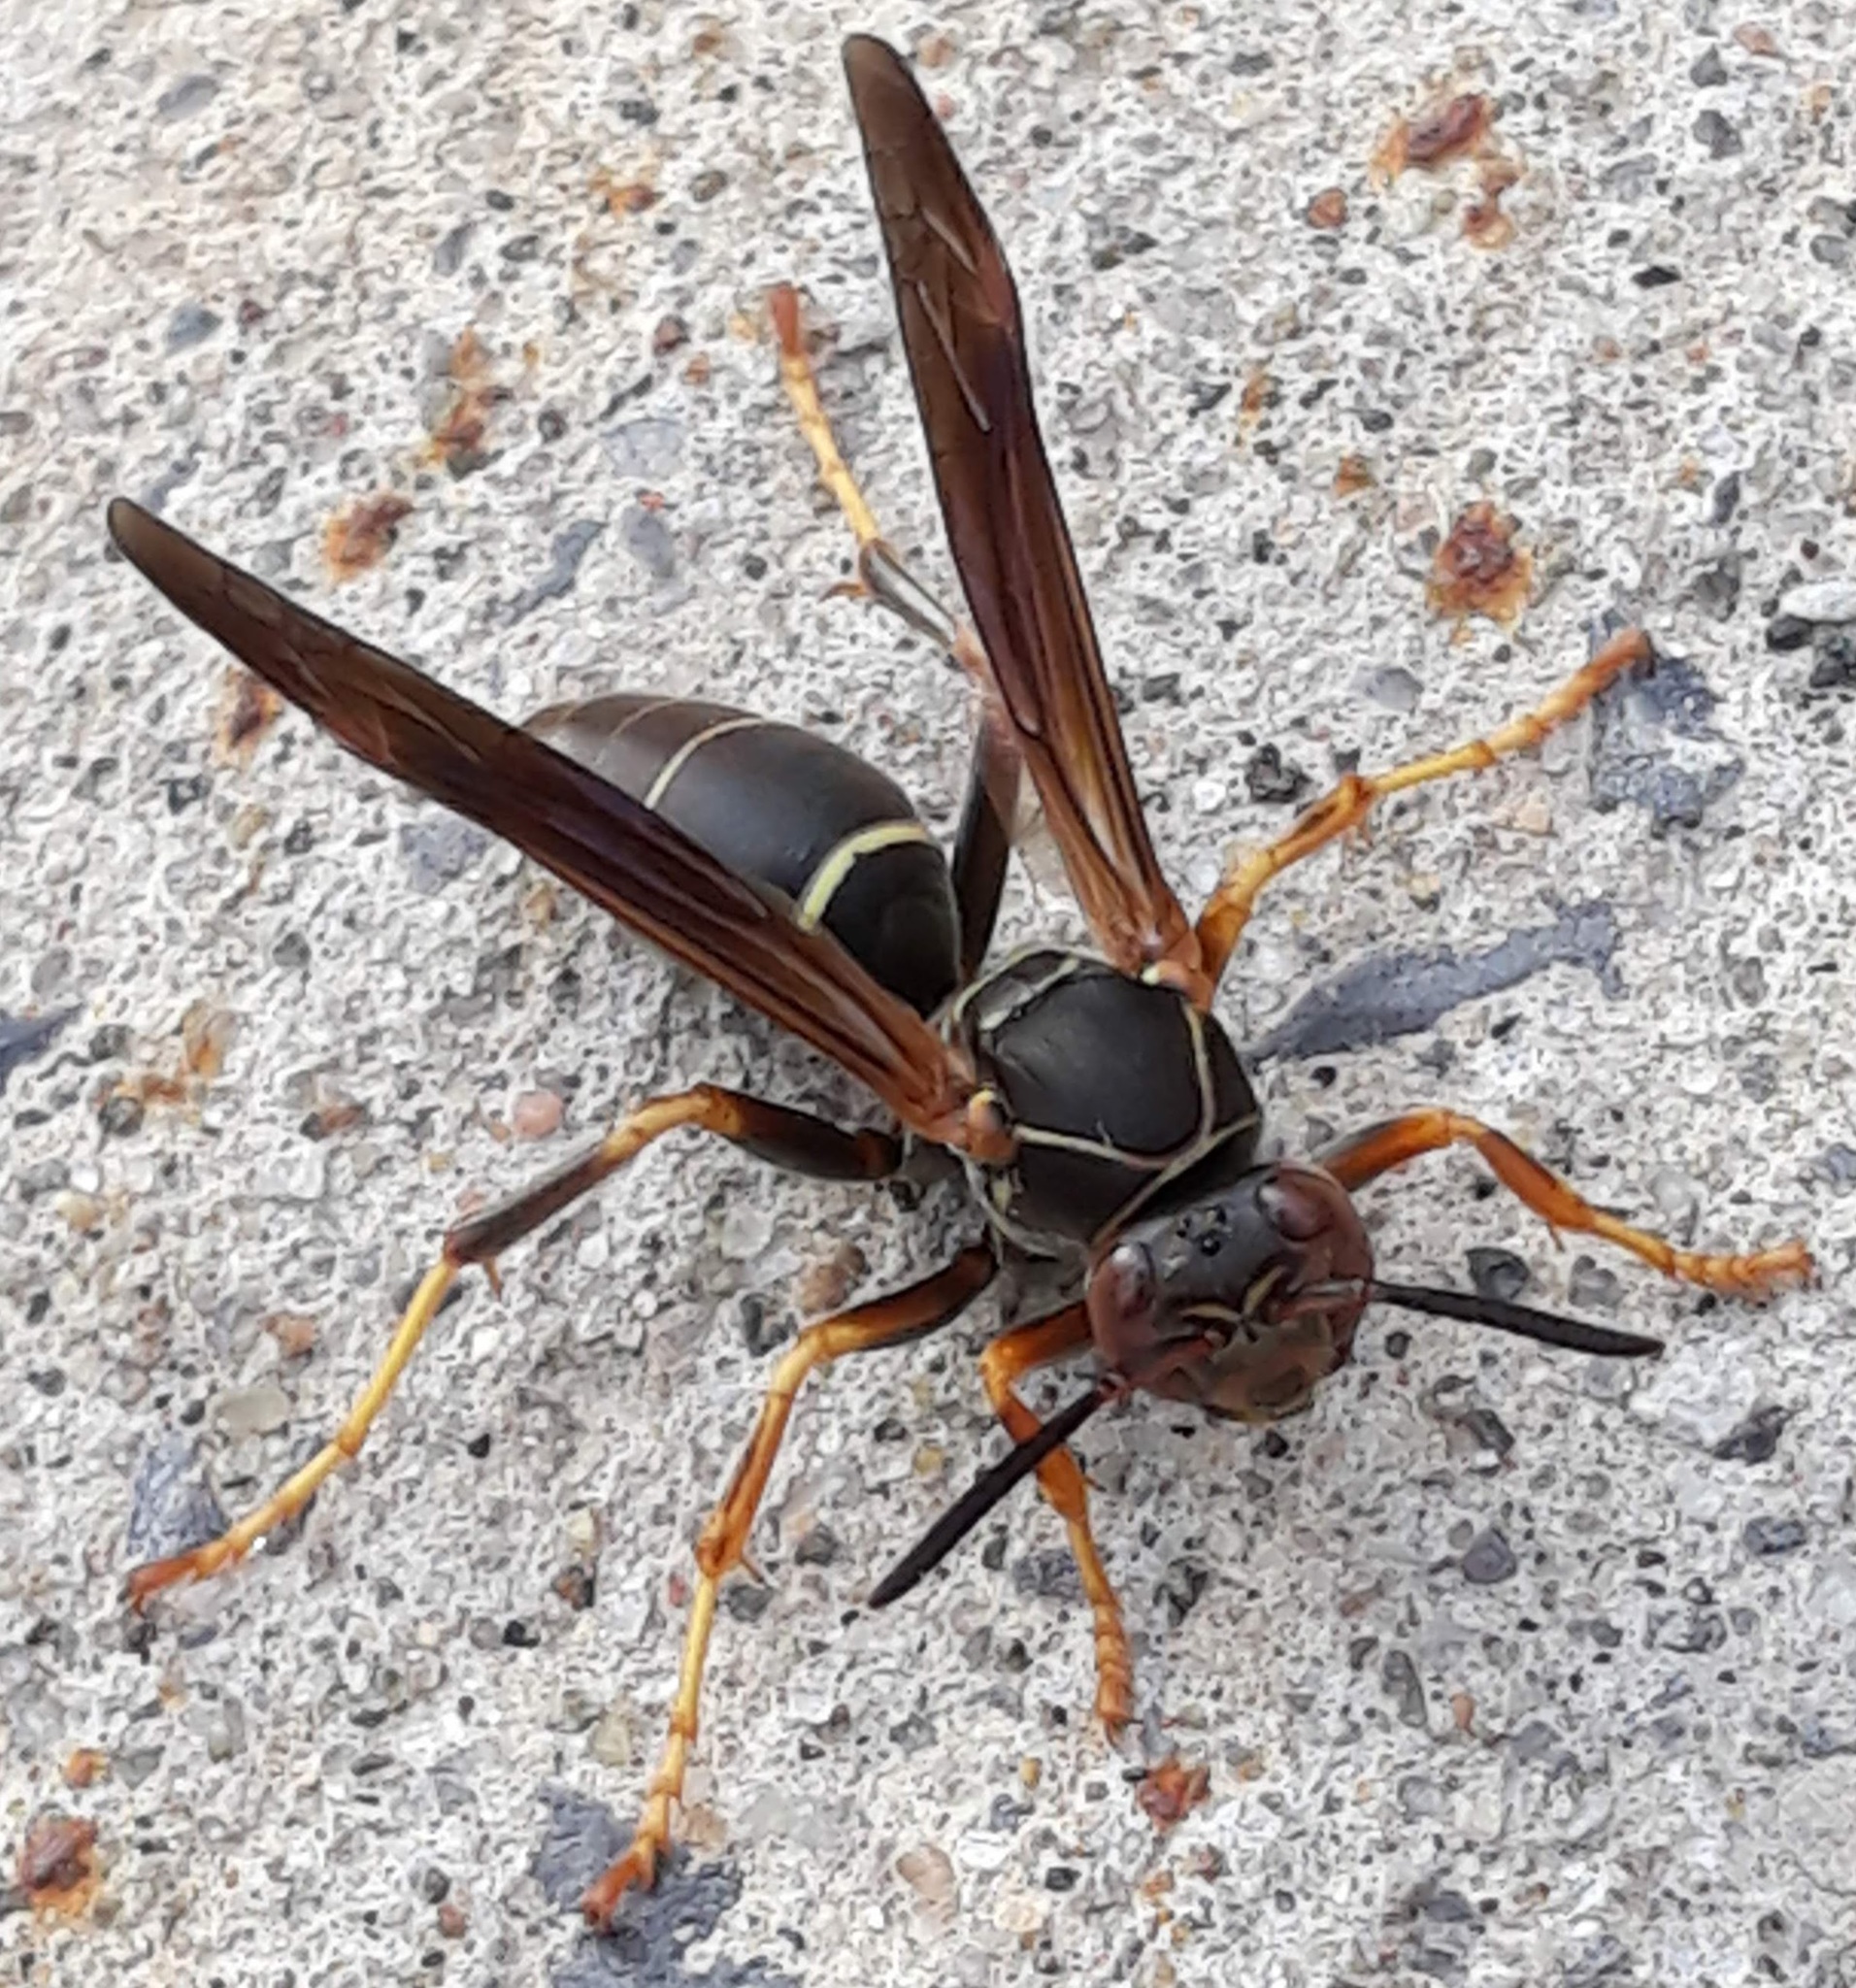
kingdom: Animalia
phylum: Arthropoda
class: Insecta
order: Hymenoptera
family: Eumenidae
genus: Polistes
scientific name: Polistes fuscatus
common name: Dark paper wasp
